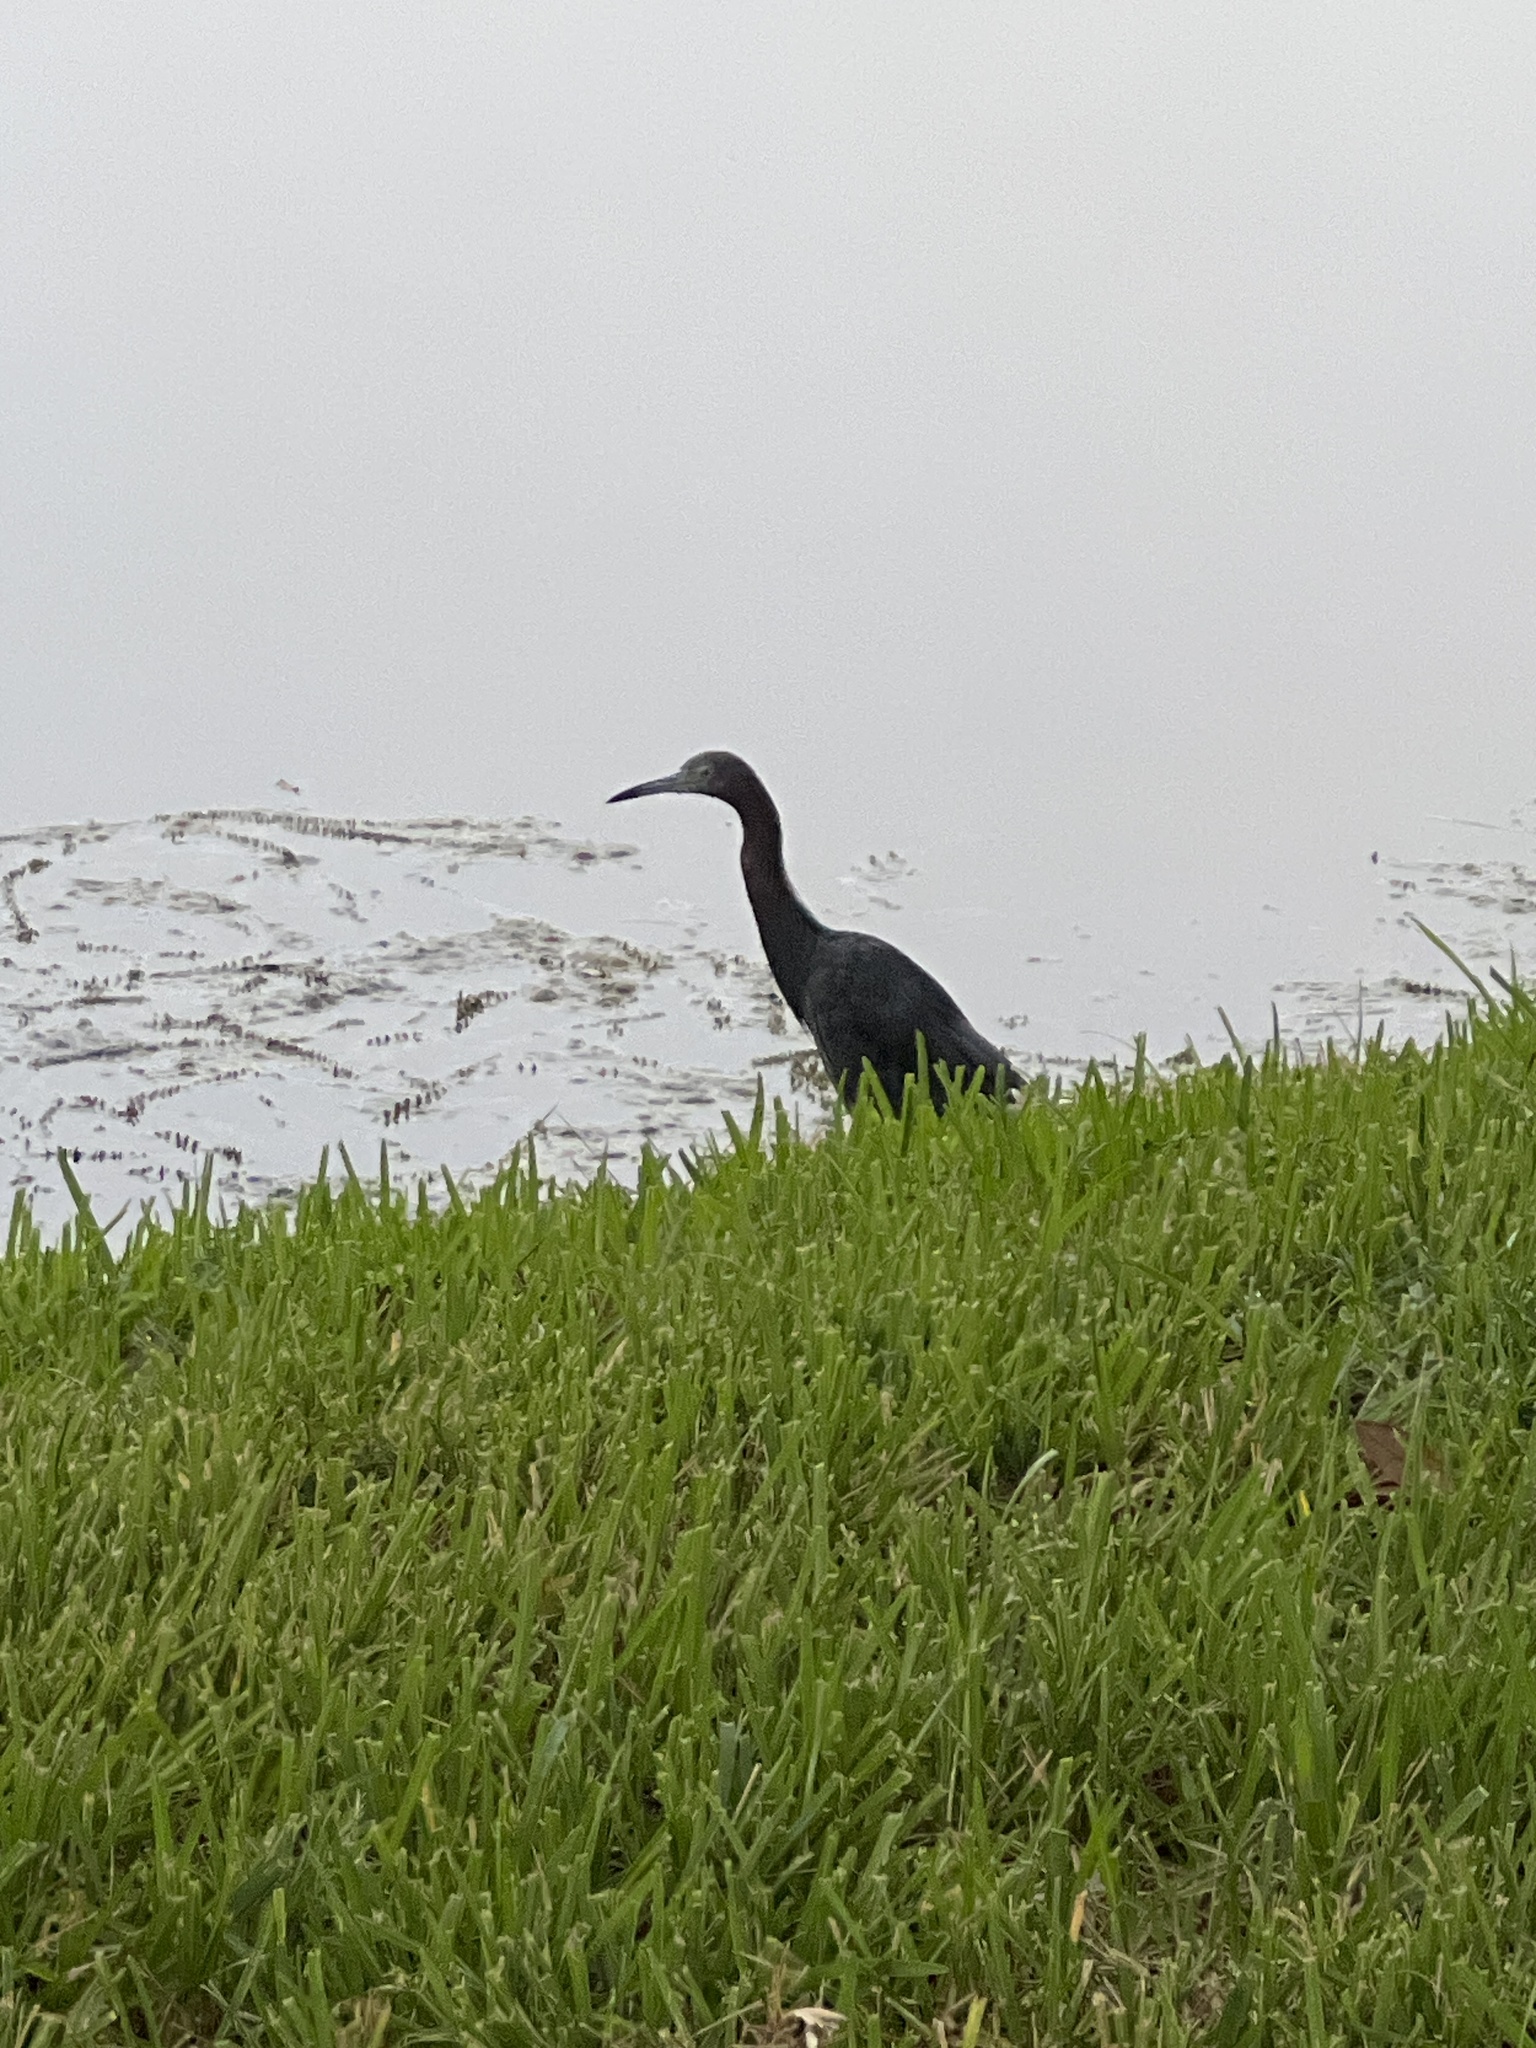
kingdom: Animalia
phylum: Chordata
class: Aves
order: Pelecaniformes
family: Ardeidae
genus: Egretta
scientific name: Egretta caerulea
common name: Little blue heron
